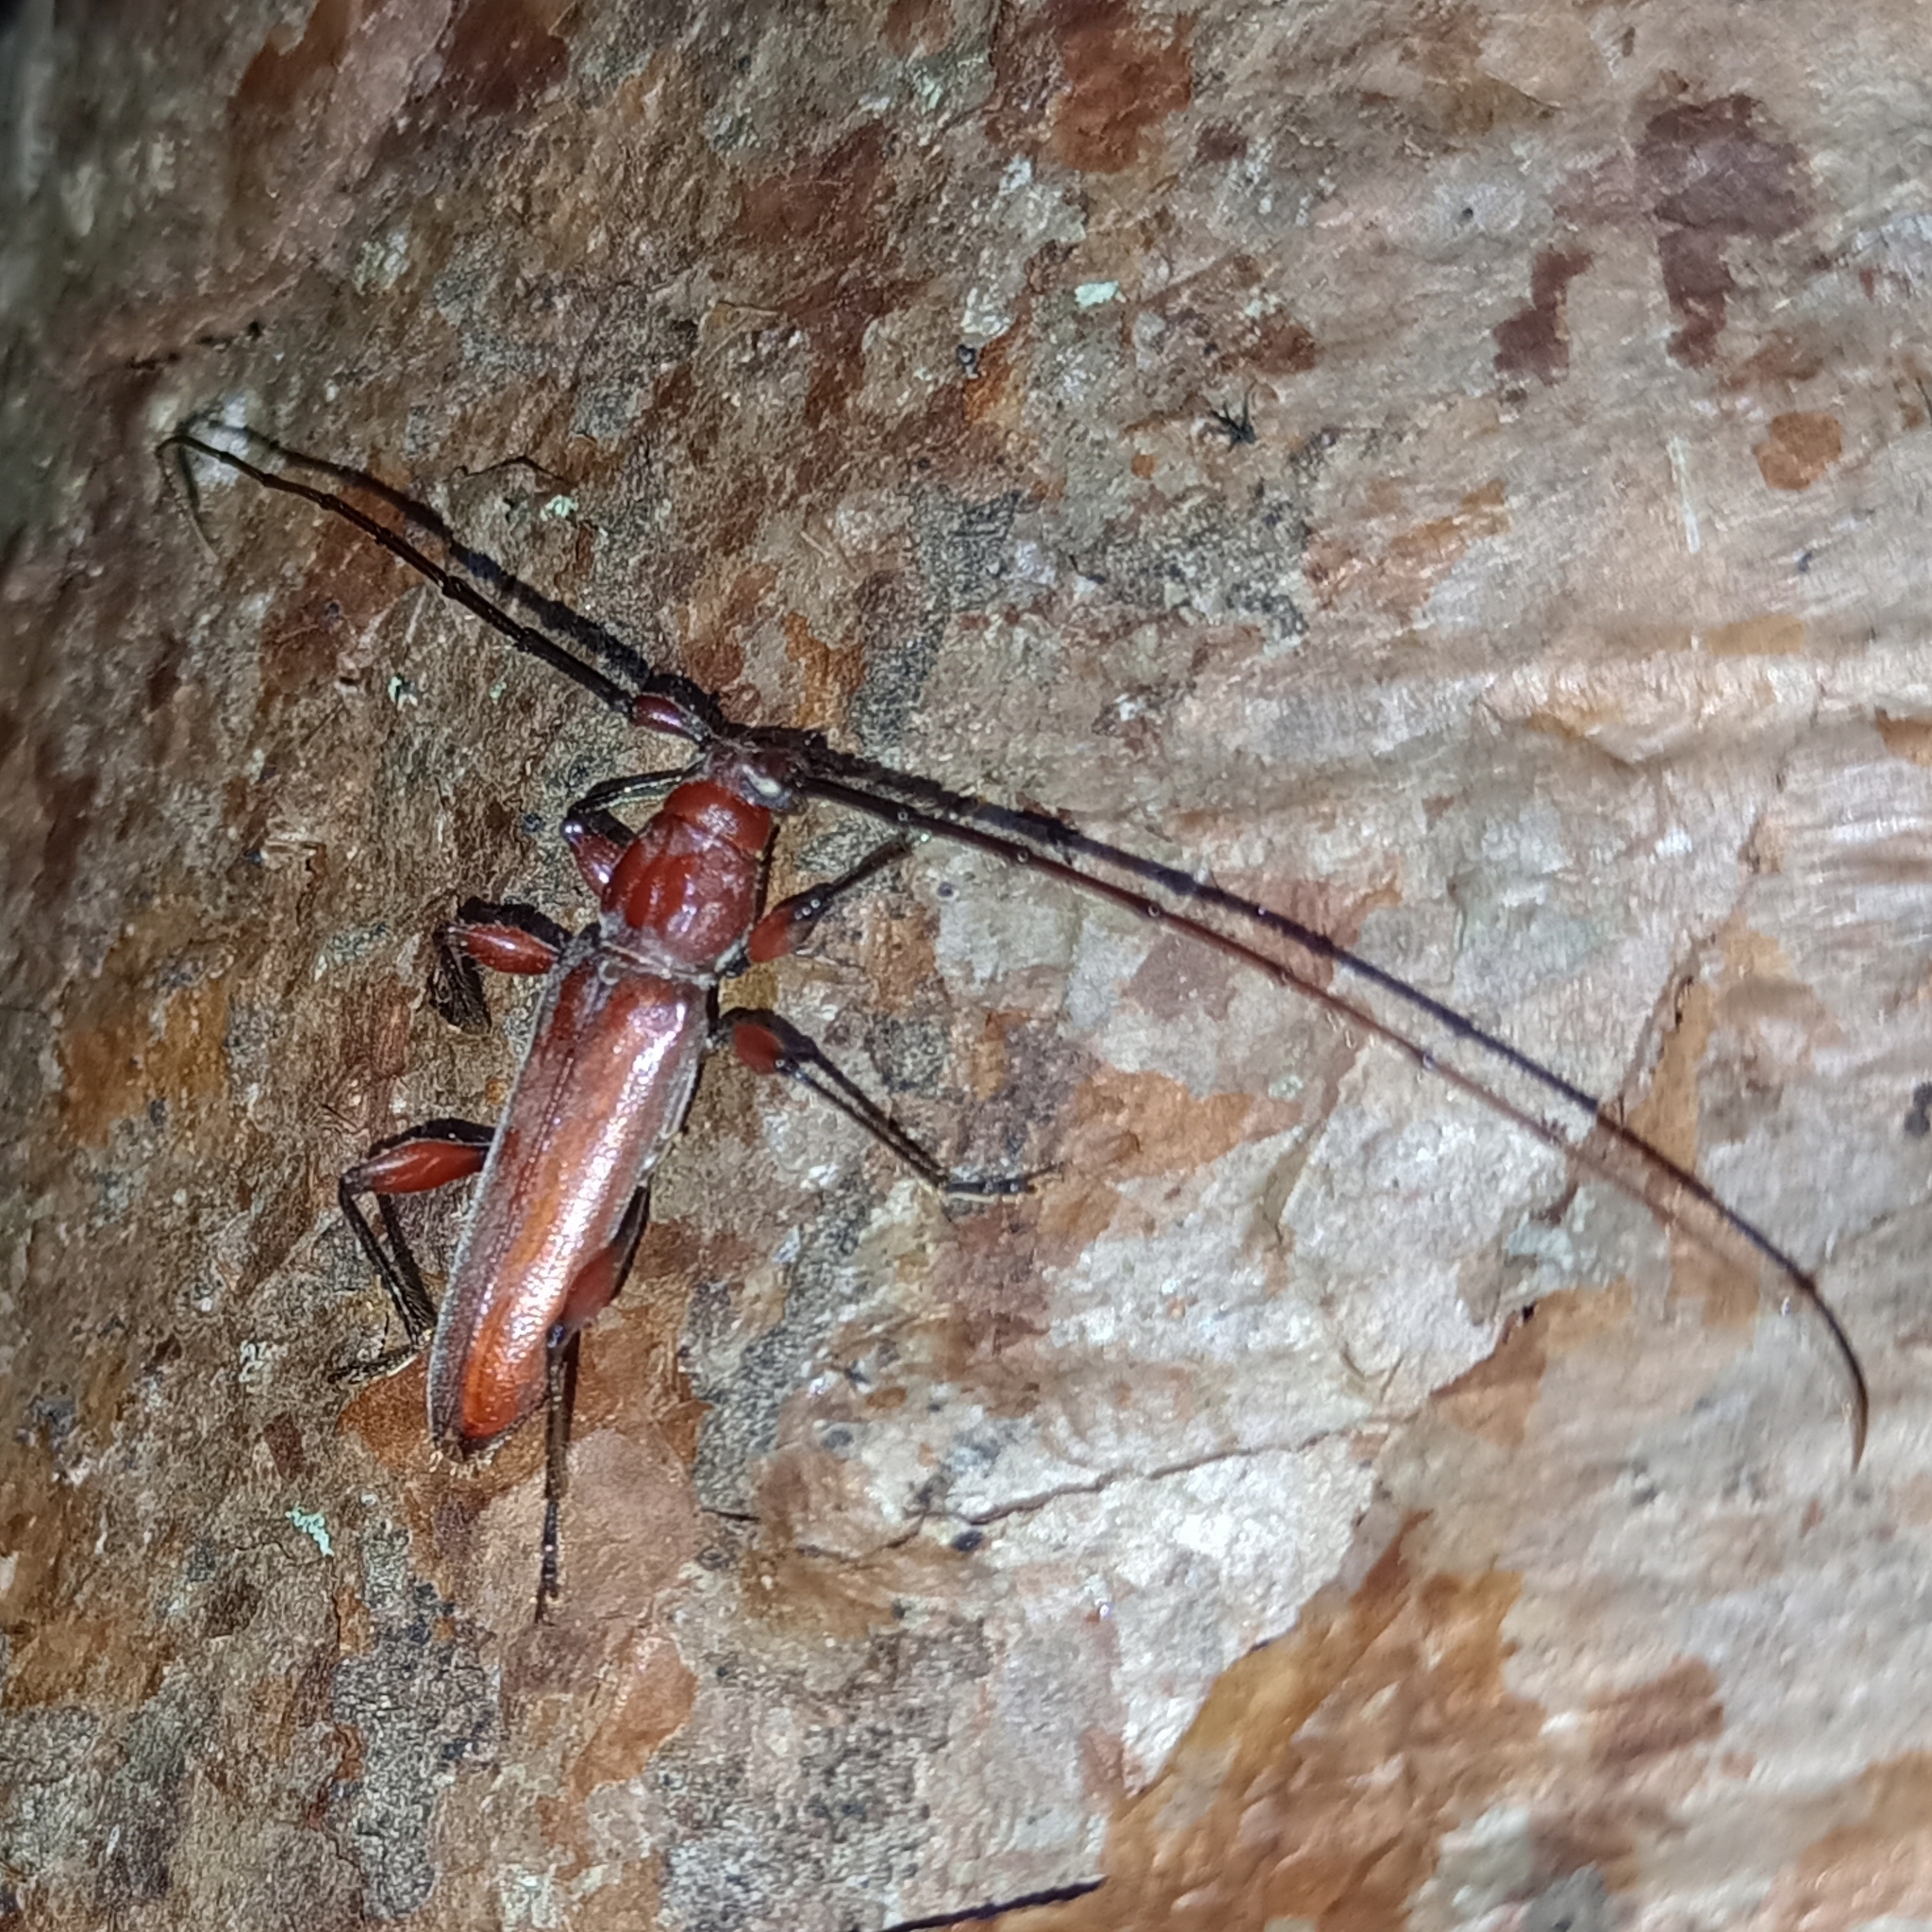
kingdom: Animalia
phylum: Arthropoda
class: Insecta
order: Coleoptera
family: Cerambycidae
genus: Sphaerion
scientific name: Sphaerion exutum
